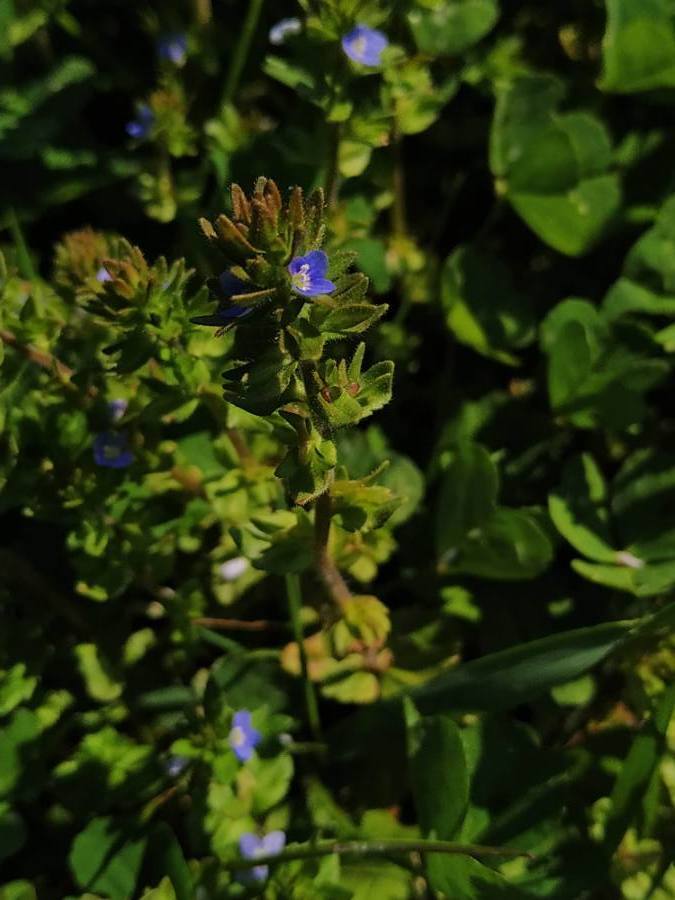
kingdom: Plantae
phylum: Tracheophyta
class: Magnoliopsida
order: Lamiales
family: Plantaginaceae
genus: Veronica
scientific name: Veronica arvensis
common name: Corn speedwell
